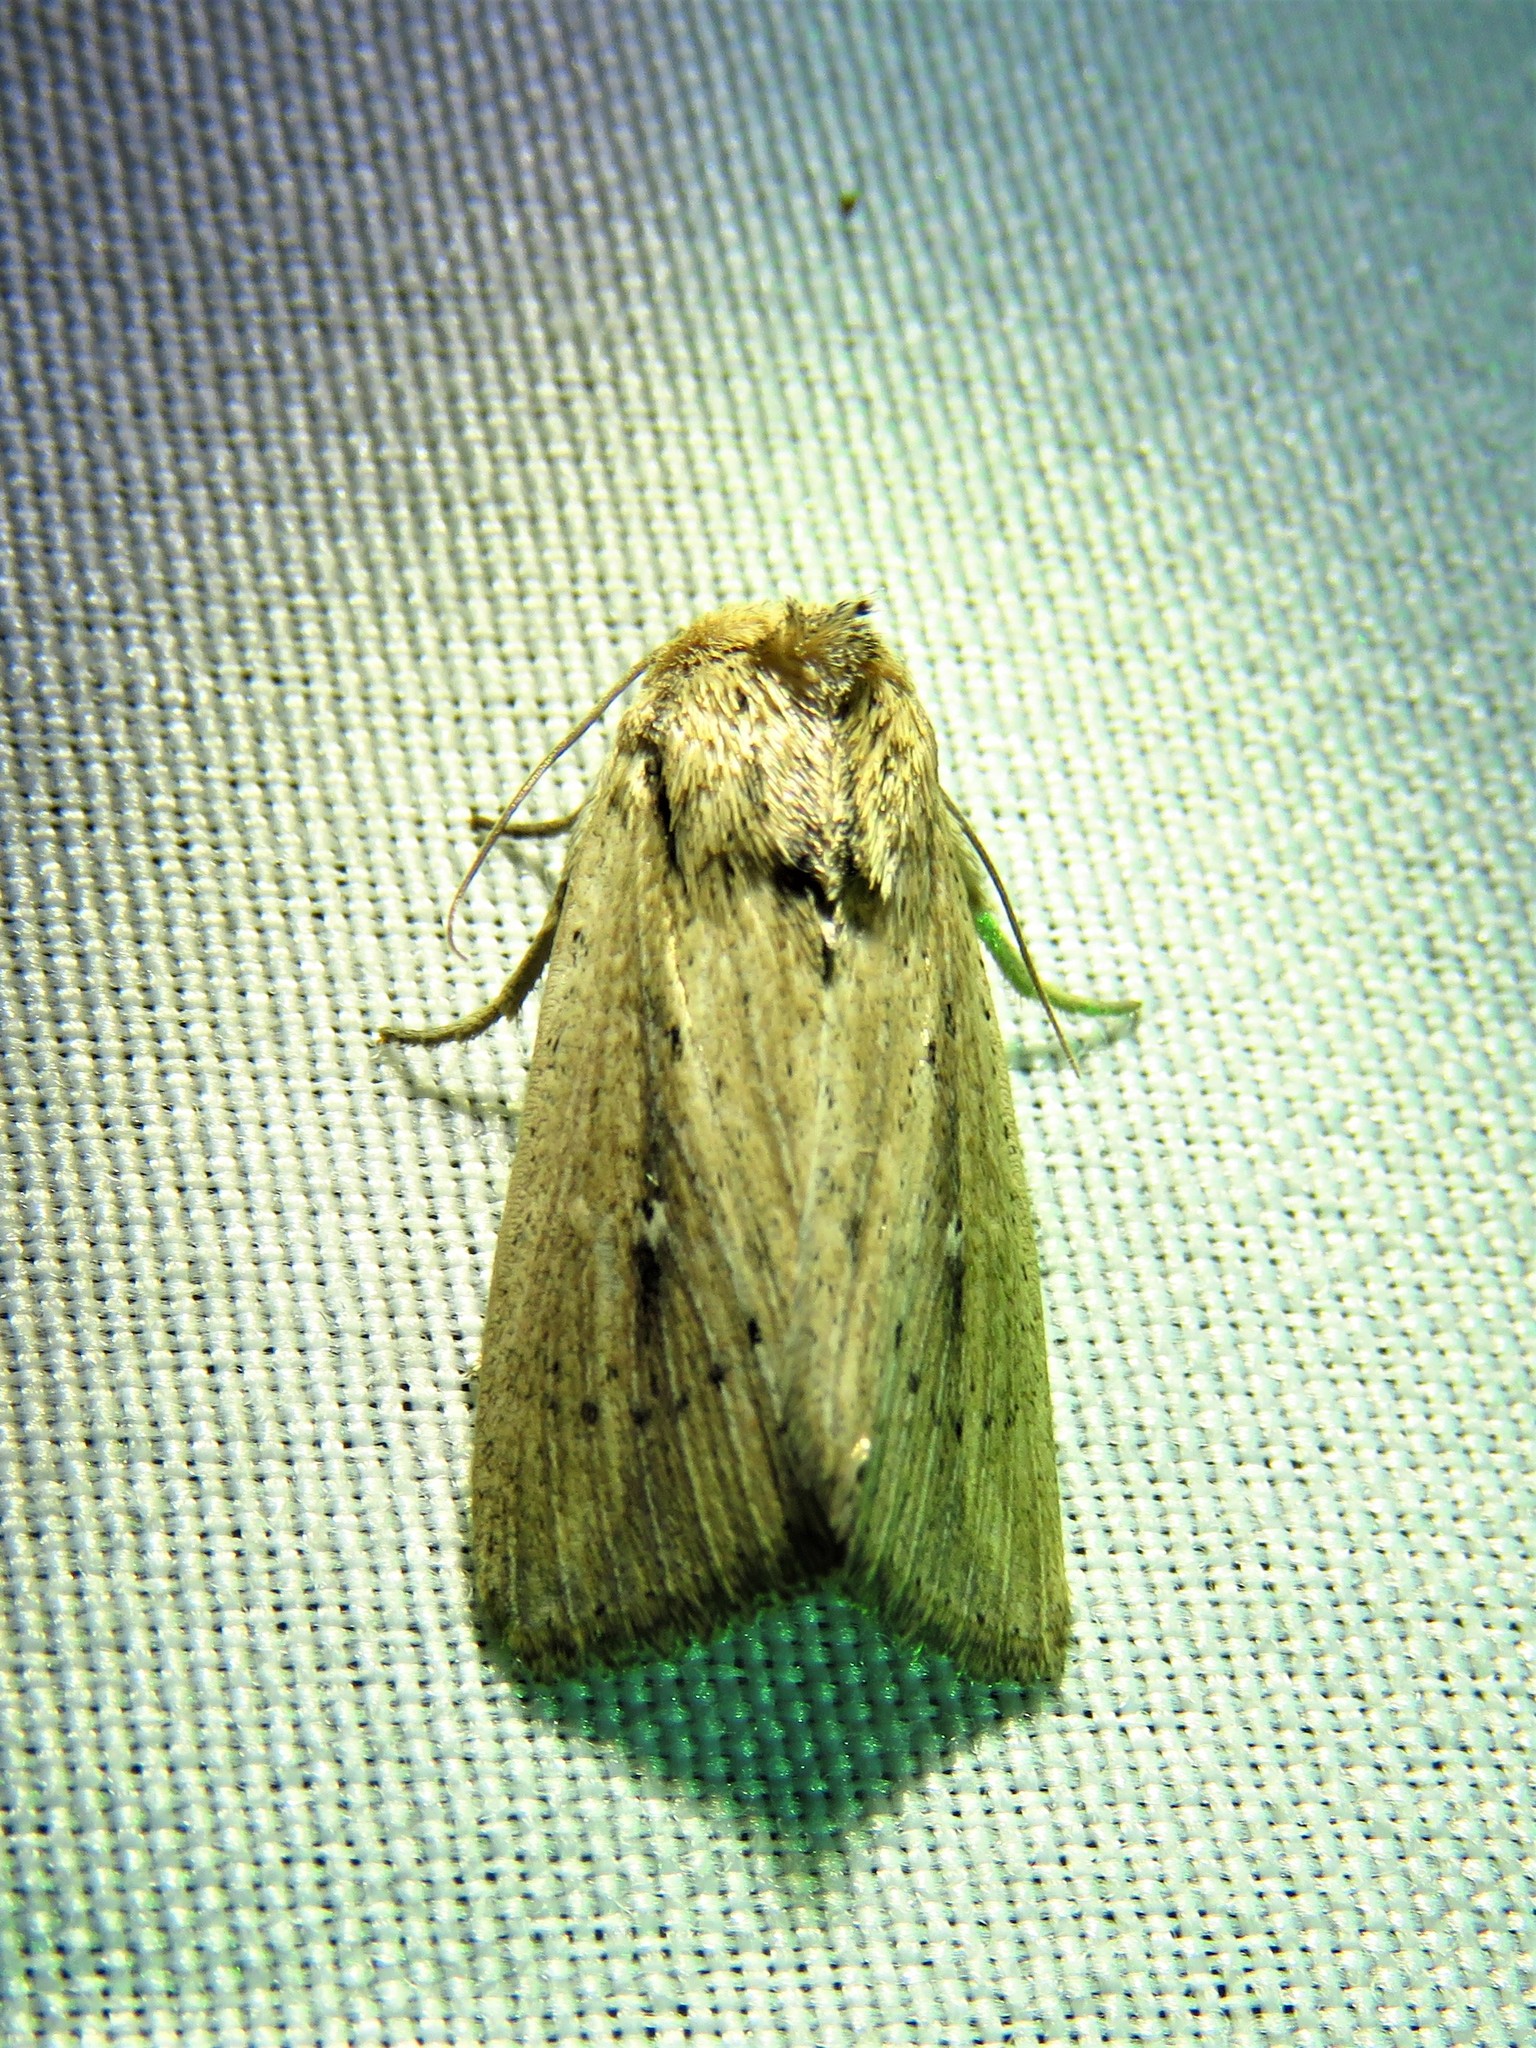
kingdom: Animalia
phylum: Arthropoda
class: Insecta
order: Lepidoptera
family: Noctuidae
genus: Leucania
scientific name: Leucania incognita
